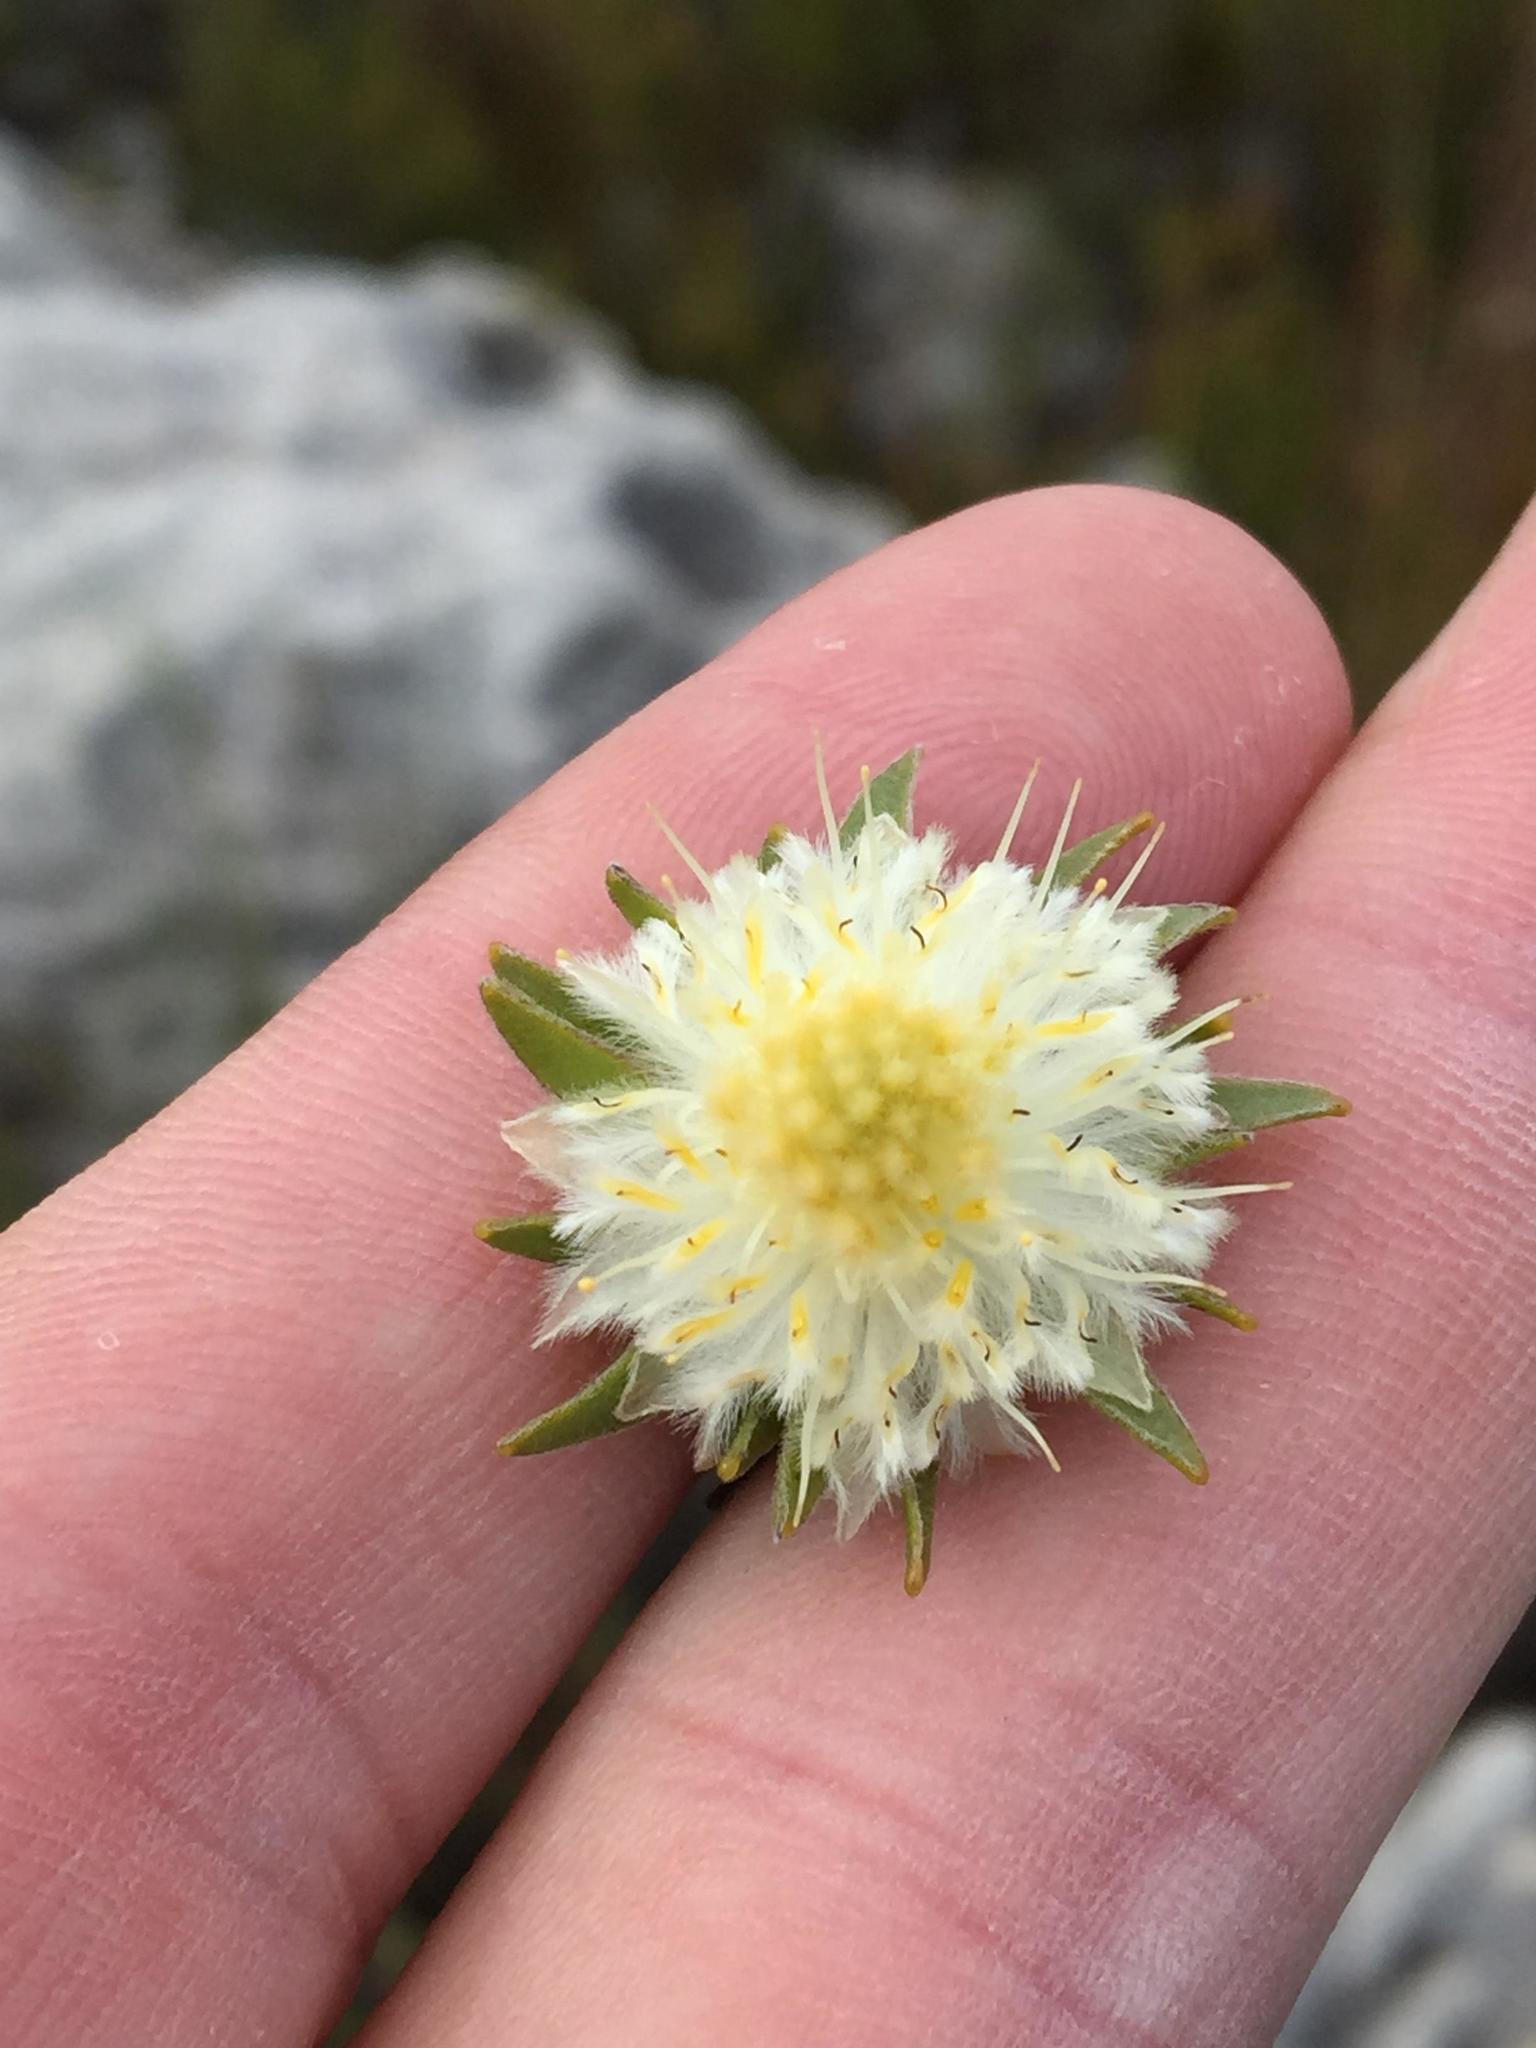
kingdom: Plantae
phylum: Tracheophyta
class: Magnoliopsida
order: Proteales
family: Proteaceae
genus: Diastella
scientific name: Diastella fraterna
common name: Palmiet silkypuff
